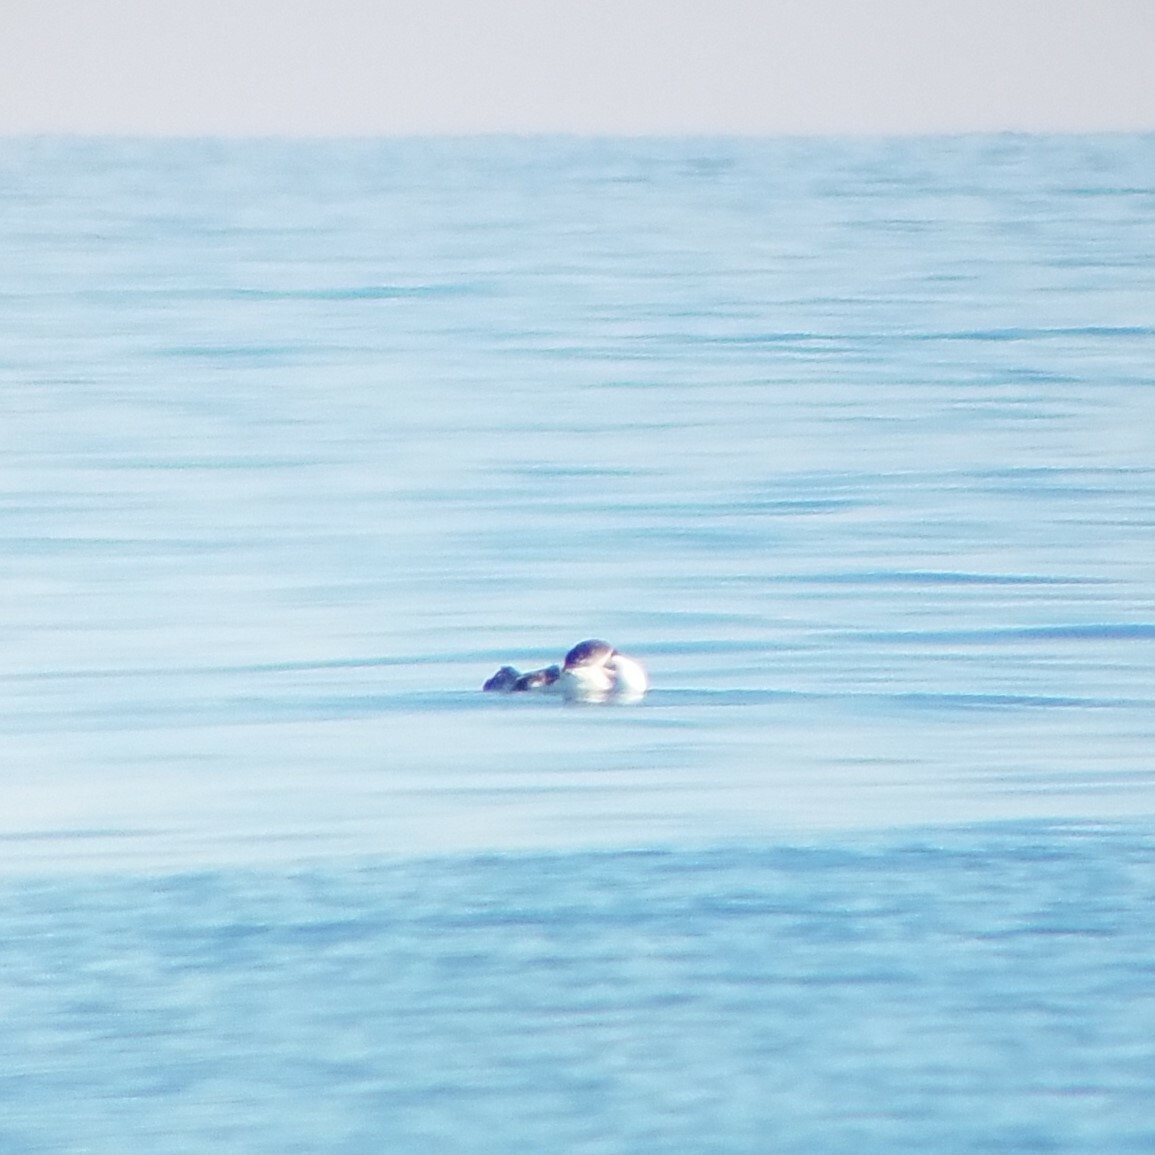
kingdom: Animalia
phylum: Chordata
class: Aves
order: Gaviiformes
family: Gaviidae
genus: Gavia
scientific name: Gavia immer
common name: Common loon
